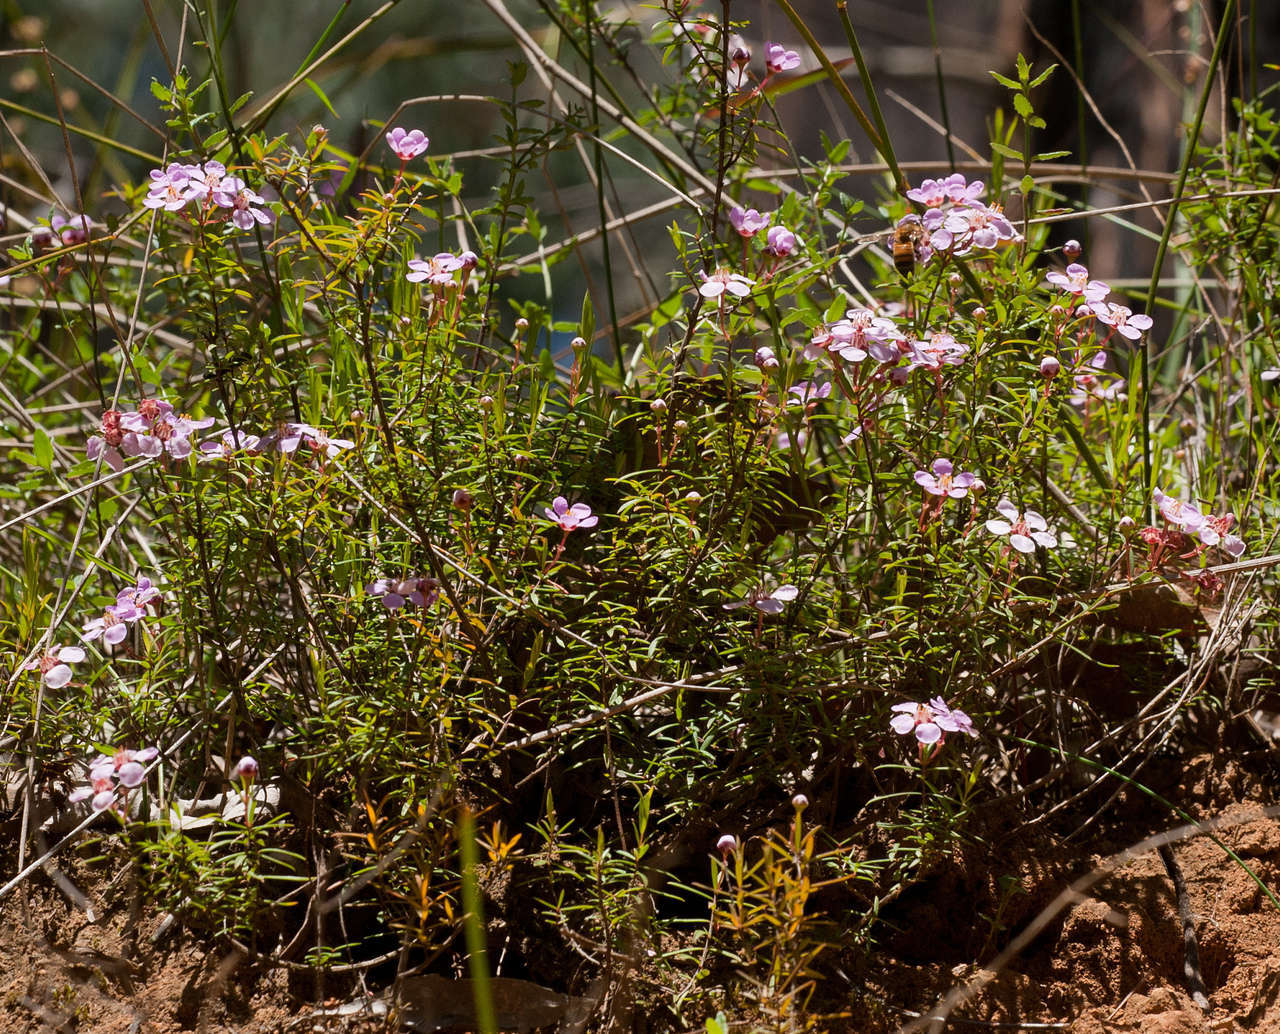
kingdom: Plantae
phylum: Tracheophyta
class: Magnoliopsida
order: Myrtales
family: Myrtaceae
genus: Euryomyrtus
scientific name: Euryomyrtus ramosissima
